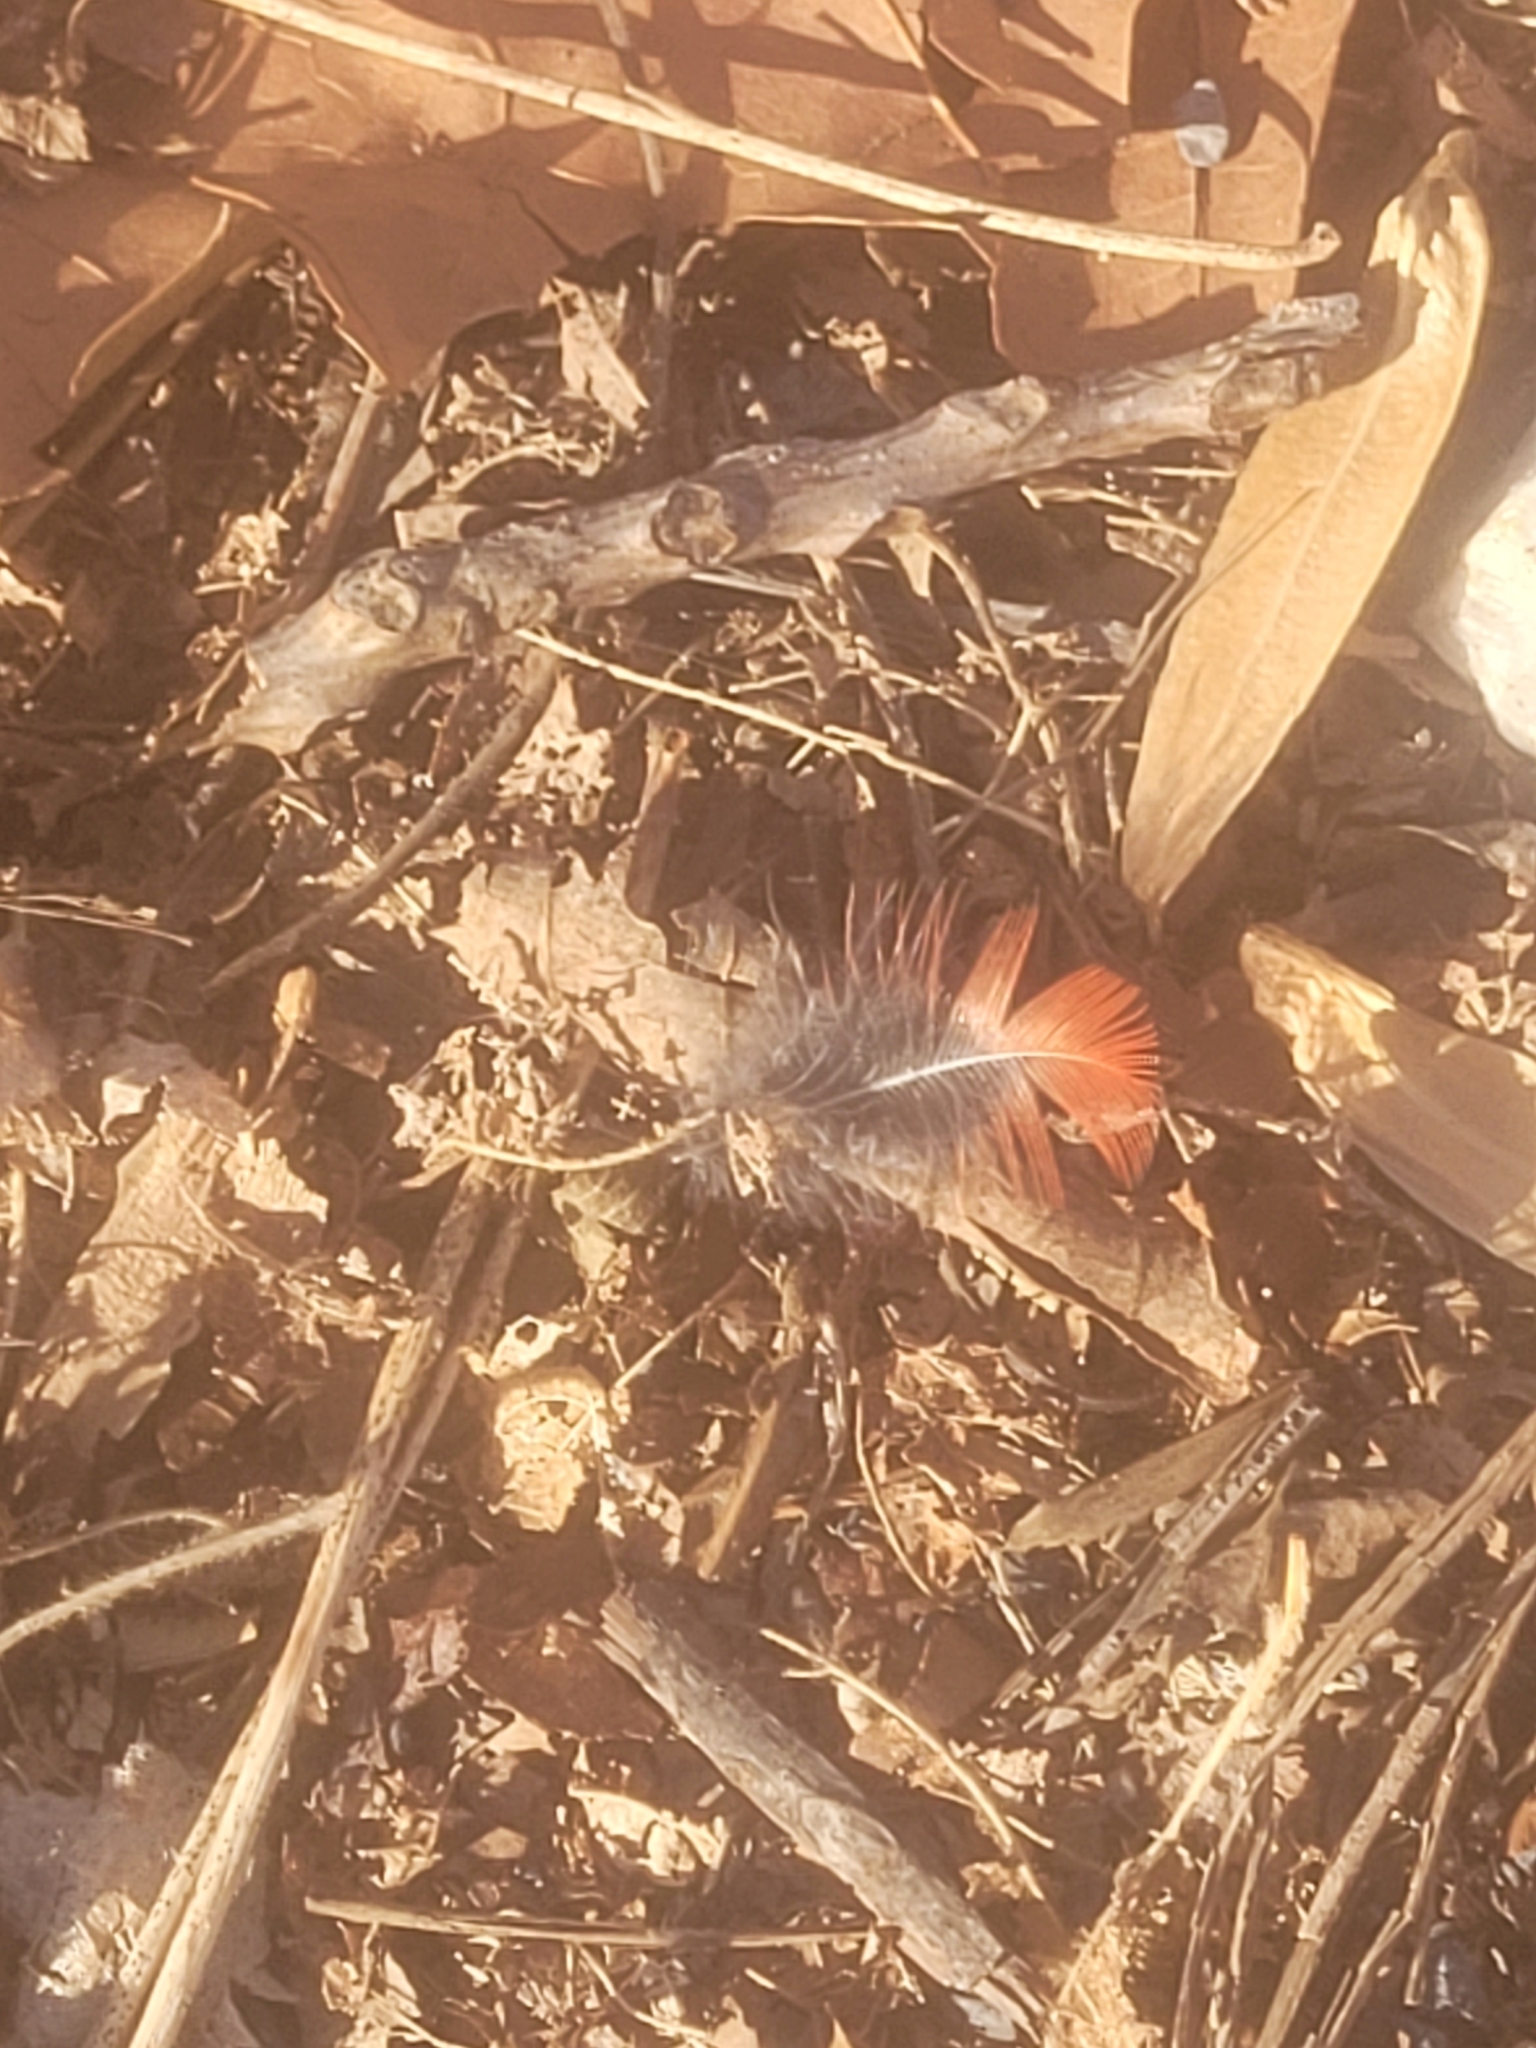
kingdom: Animalia
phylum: Chordata
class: Aves
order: Passeriformes
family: Cardinalidae
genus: Cardinalis
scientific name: Cardinalis cardinalis
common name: Northern cardinal
